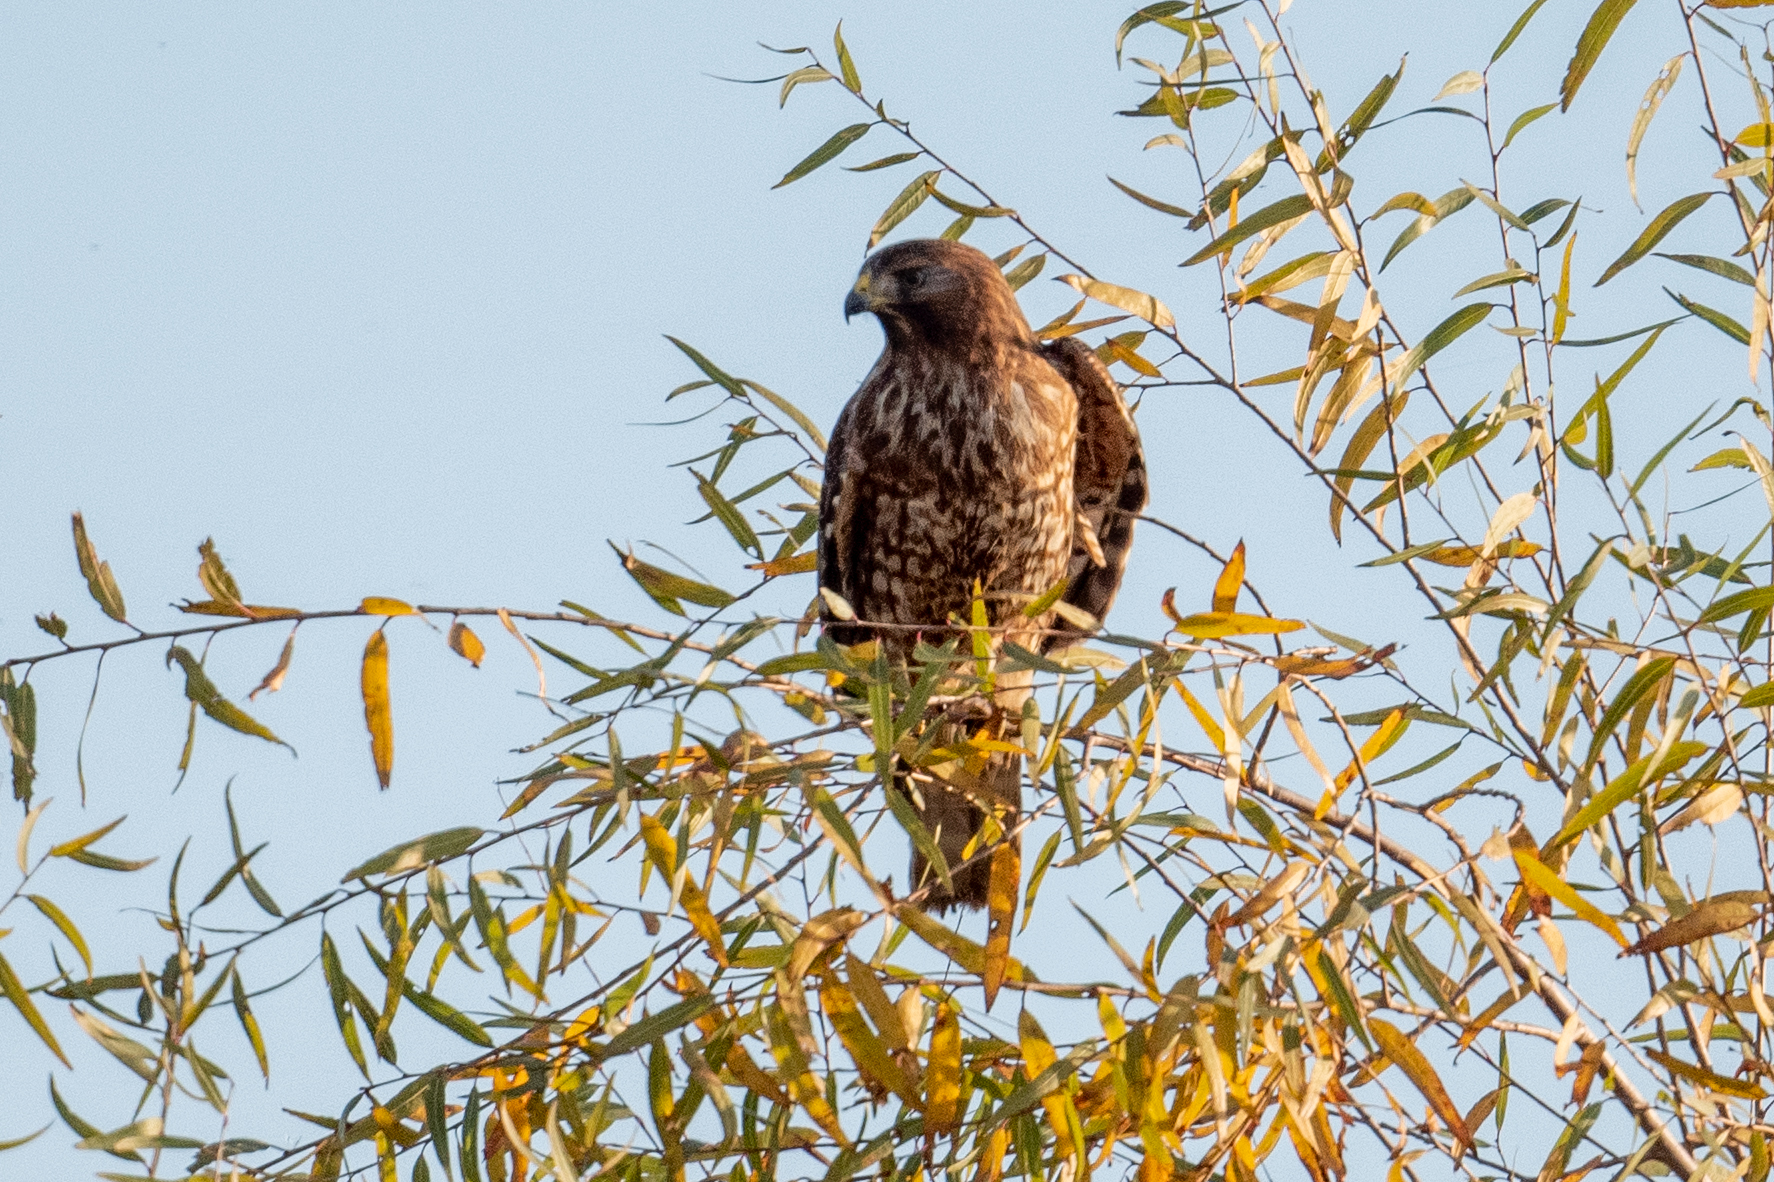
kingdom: Animalia
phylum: Chordata
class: Aves
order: Accipitriformes
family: Accipitridae
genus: Buteo
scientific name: Buteo lineatus
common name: Red-shouldered hawk
